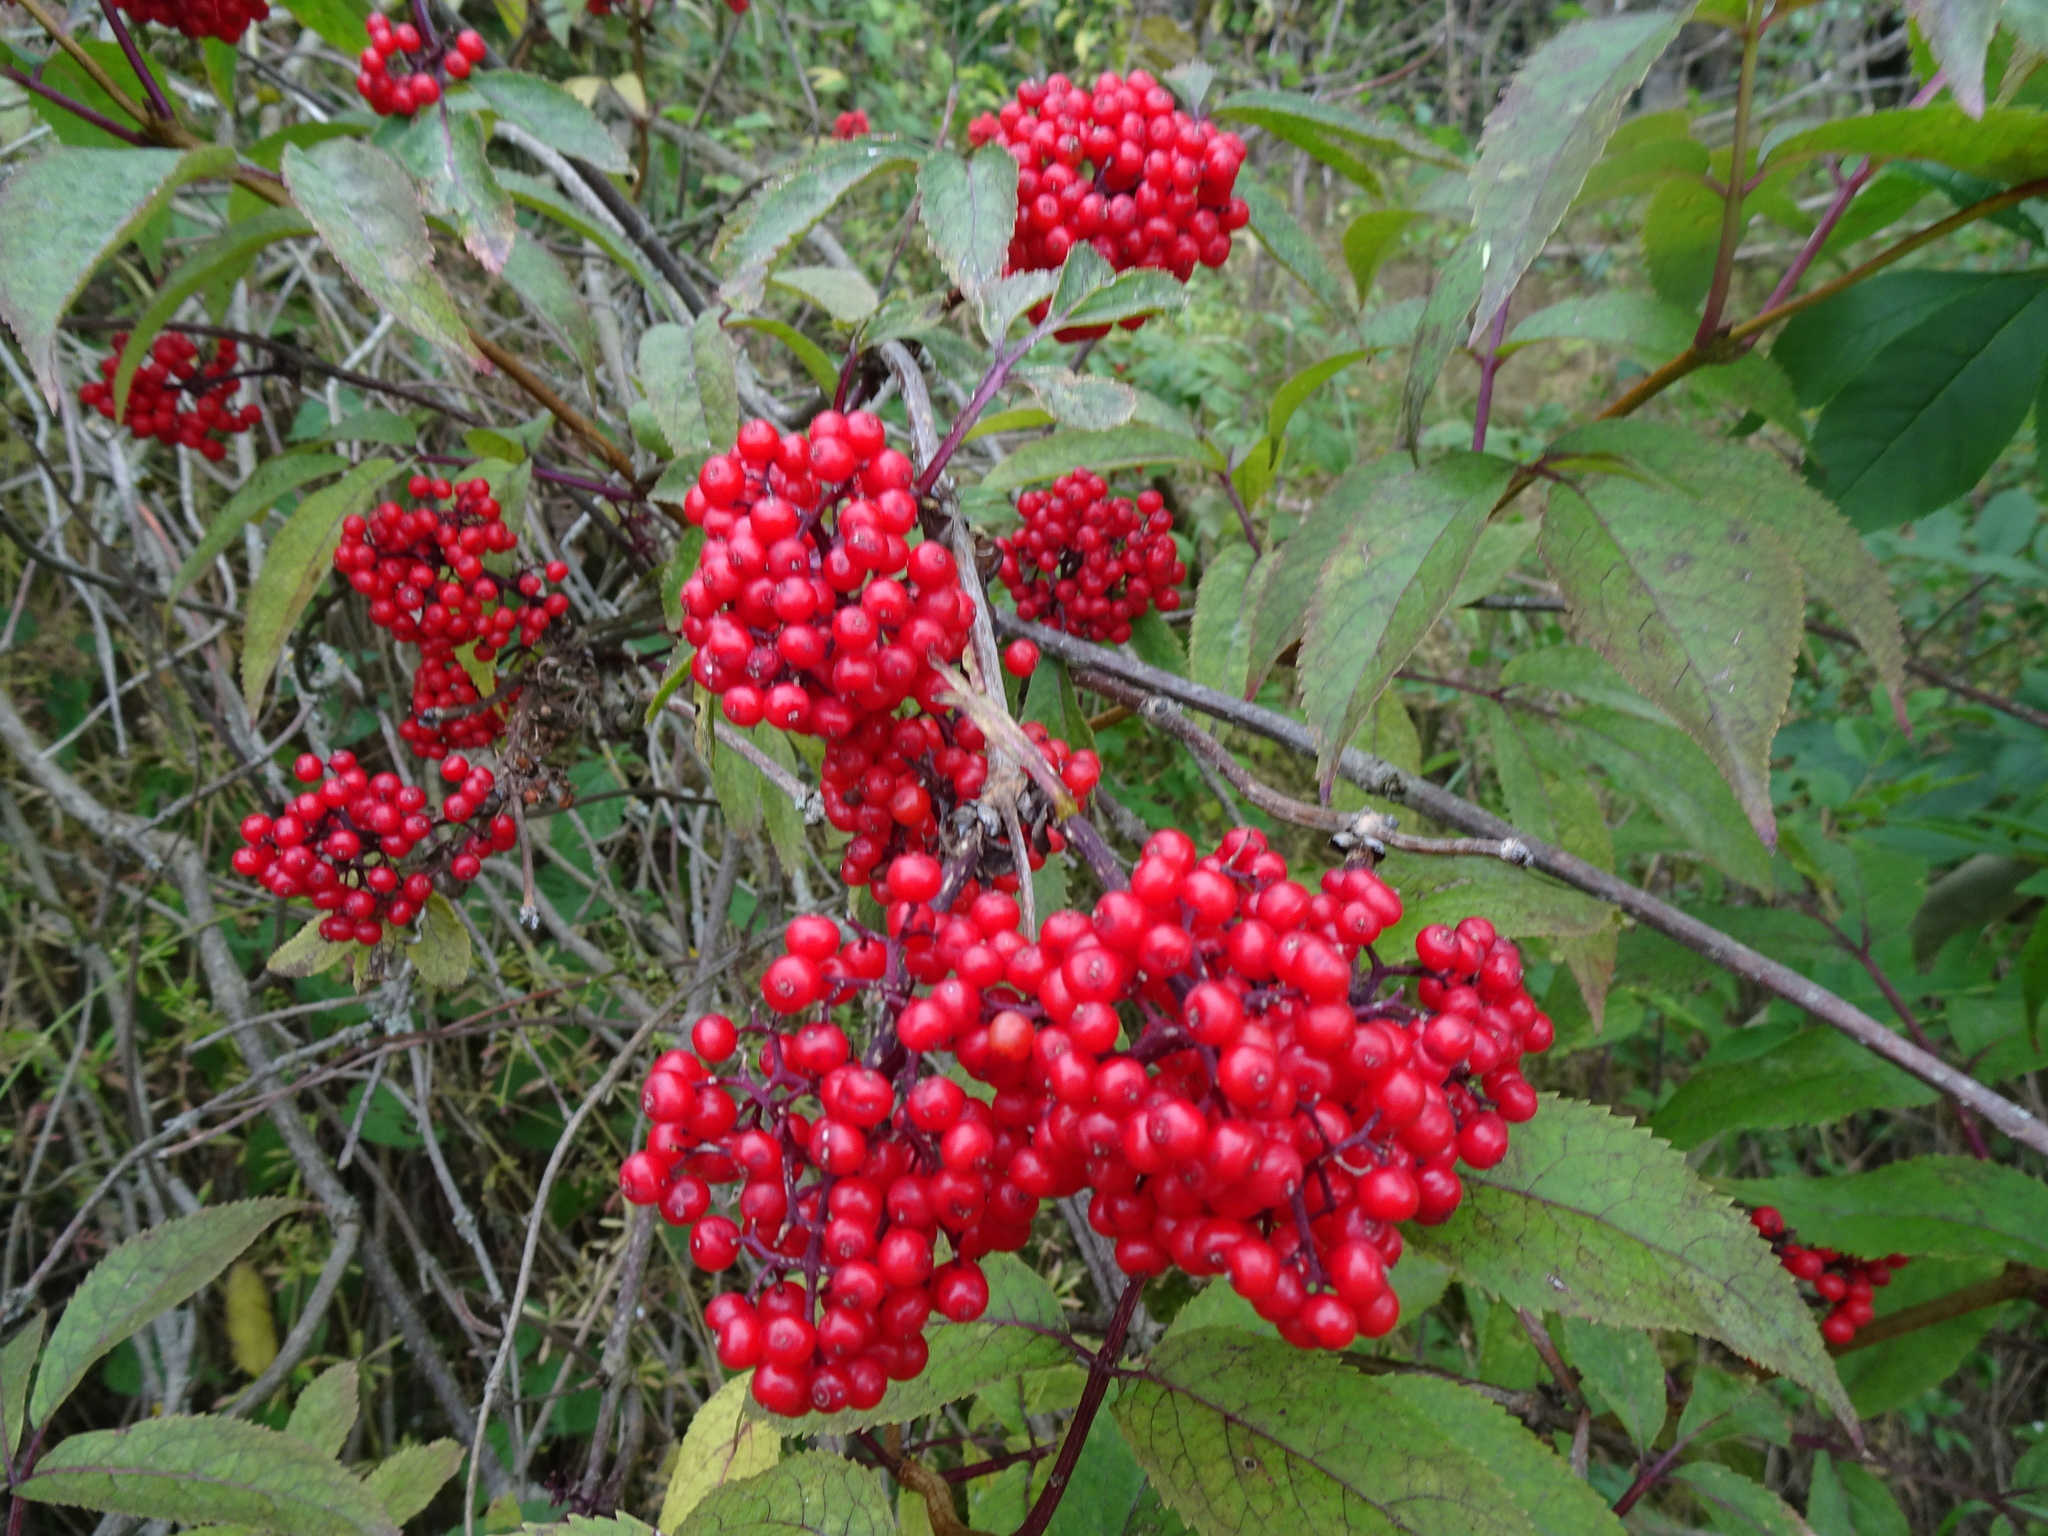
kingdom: Plantae
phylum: Tracheophyta
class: Magnoliopsida
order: Dipsacales
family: Viburnaceae
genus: Sambucus
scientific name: Sambucus racemosa
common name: Red-berried elder
